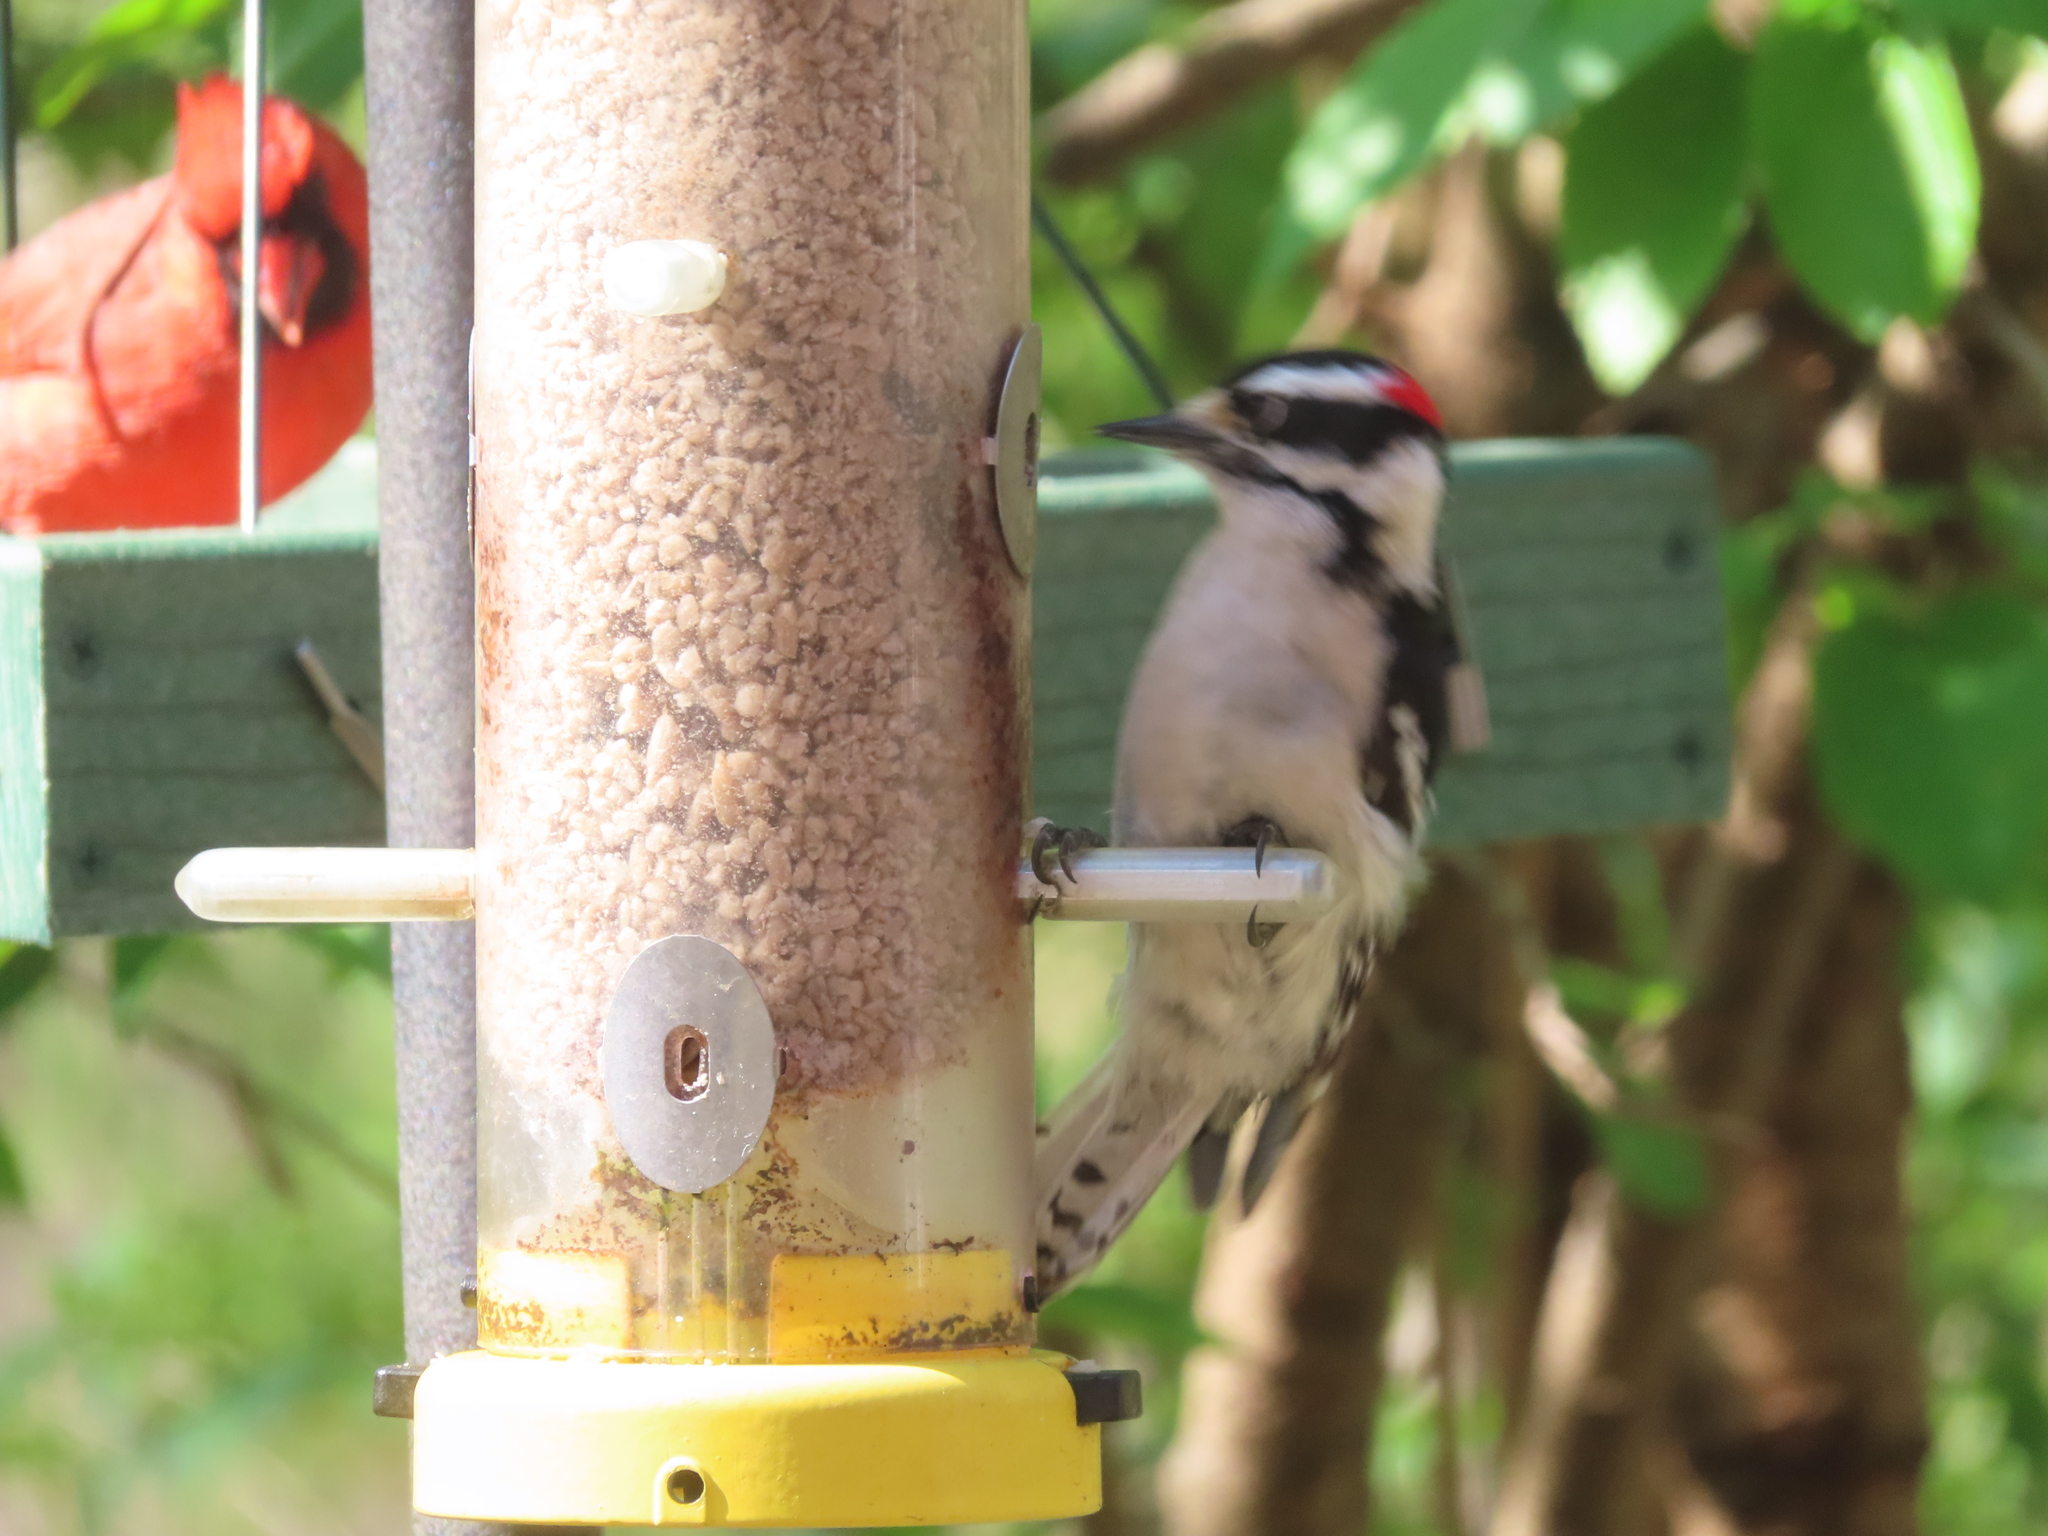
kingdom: Animalia
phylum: Chordata
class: Aves
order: Piciformes
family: Picidae
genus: Dryobates
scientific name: Dryobates pubescens
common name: Downy woodpecker
